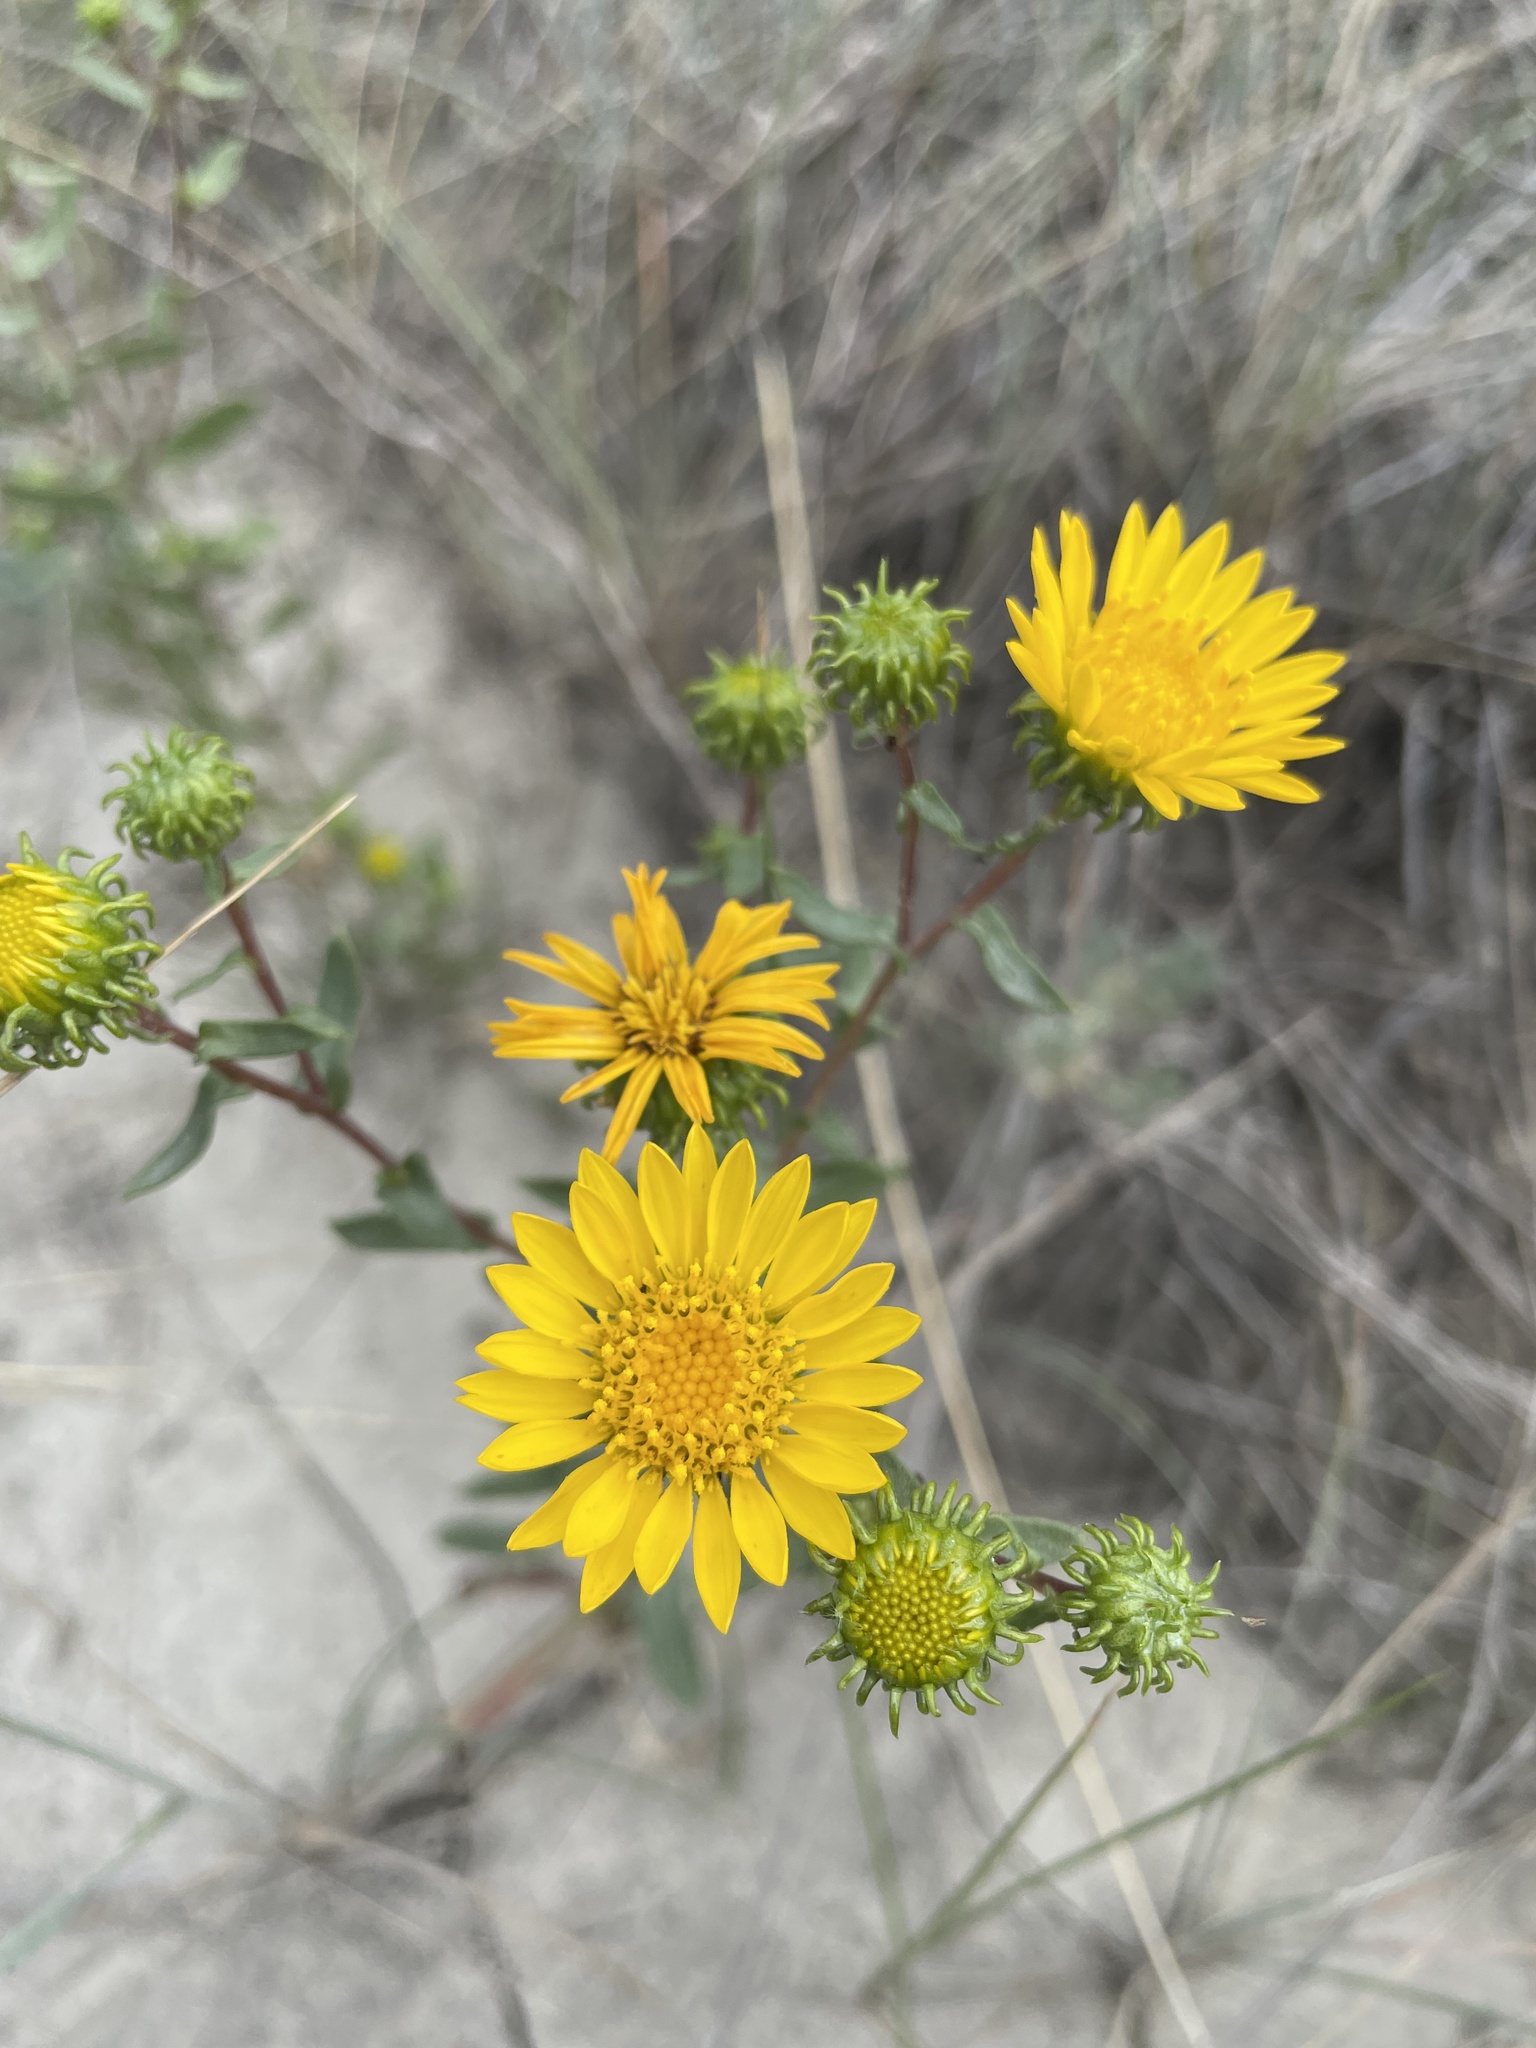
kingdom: Plantae
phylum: Tracheophyta
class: Magnoliopsida
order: Asterales
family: Asteraceae
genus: Grindelia
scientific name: Grindelia squarrosa
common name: Curly-cup gumweed
